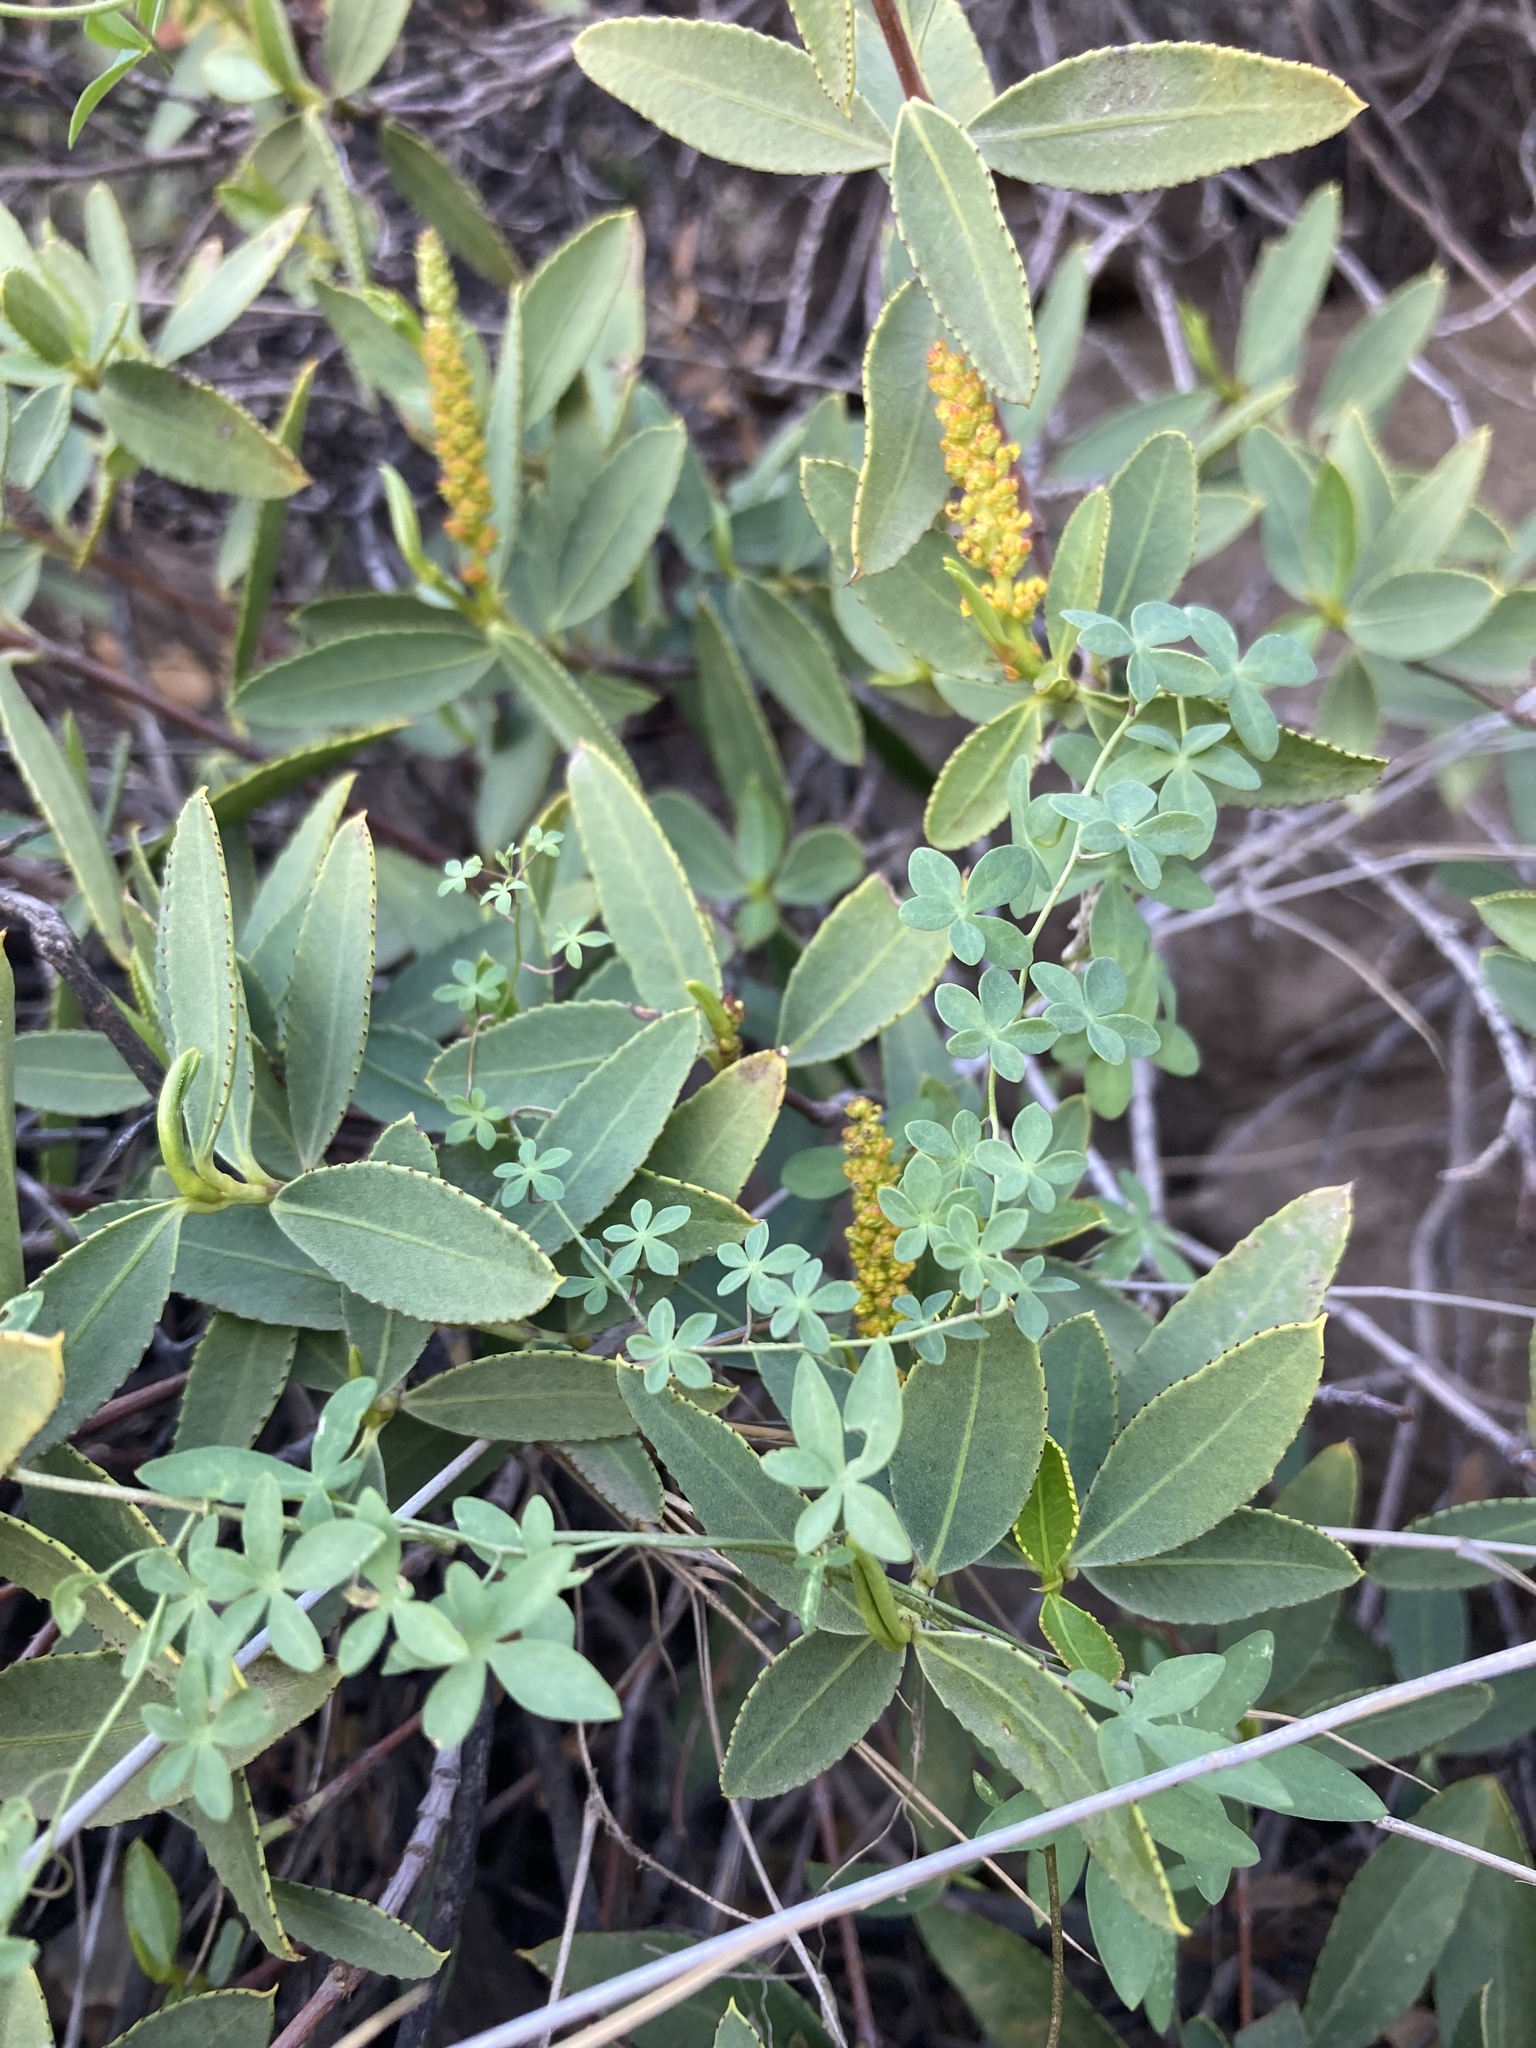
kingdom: Plantae
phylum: Tracheophyta
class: Magnoliopsida
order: Malpighiales
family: Euphorbiaceae
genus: Colliguaja
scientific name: Colliguaja odorifera
